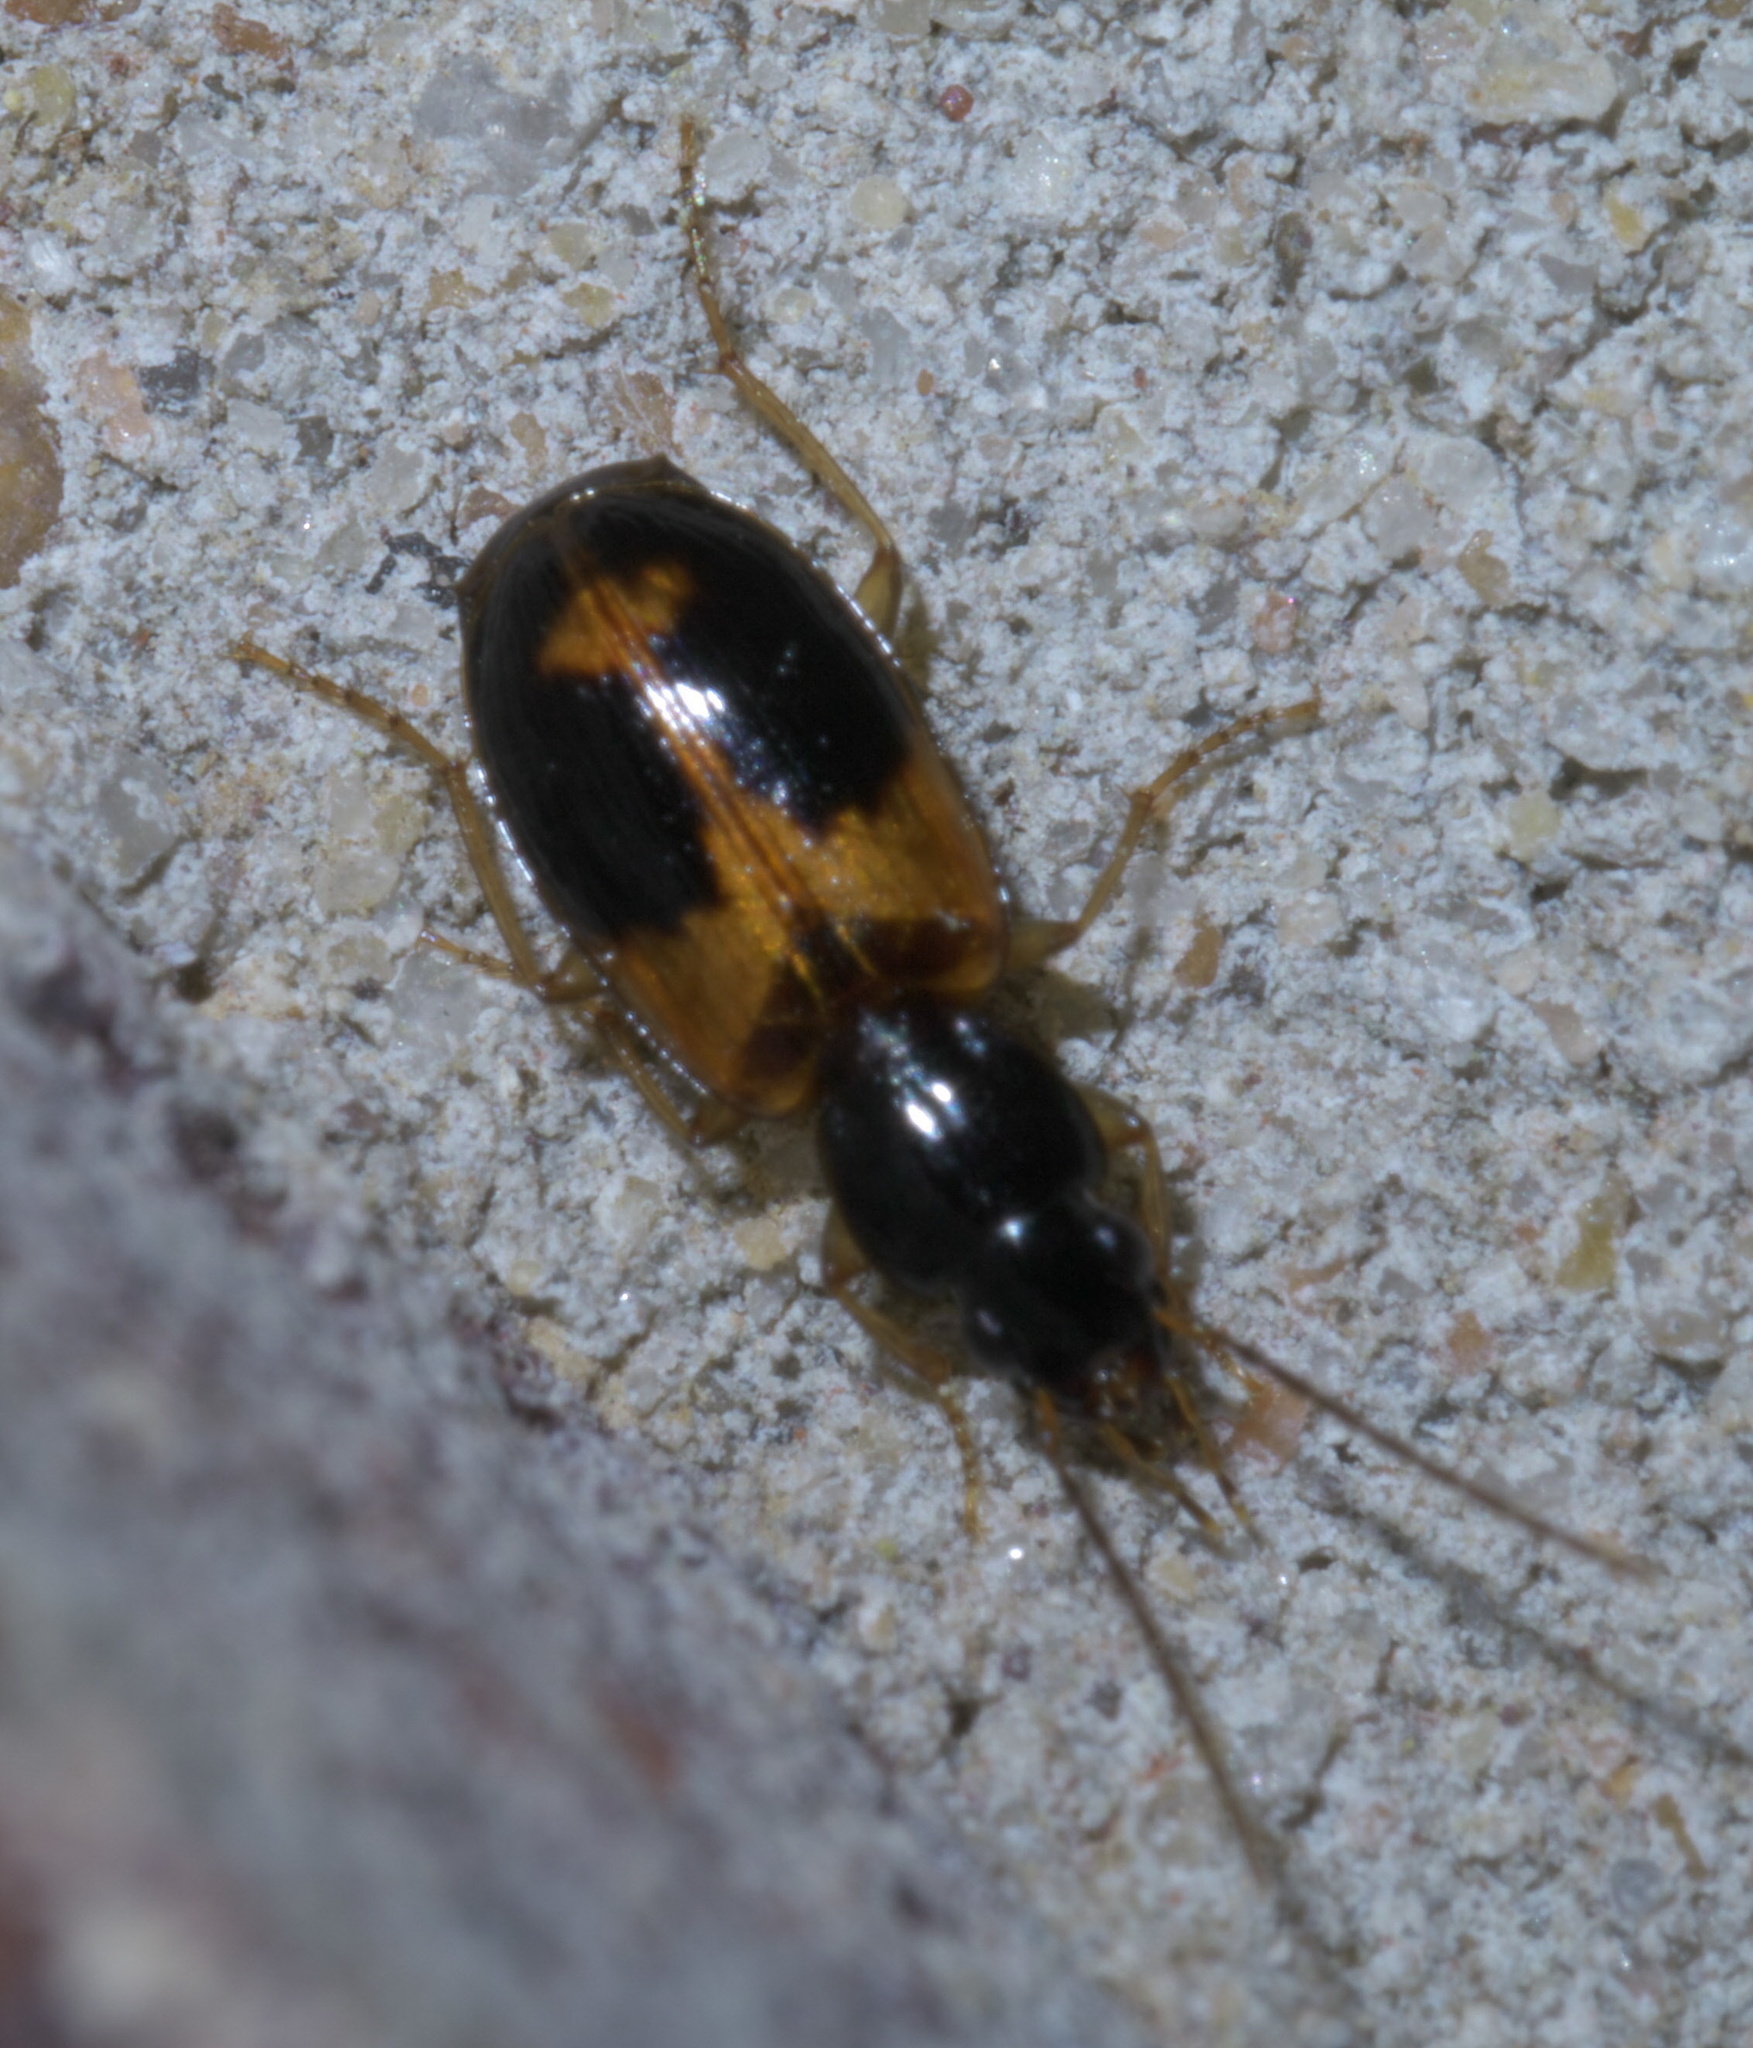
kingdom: Animalia
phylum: Arthropoda
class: Insecta
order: Coleoptera
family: Carabidae
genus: Badister
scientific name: Badister elegans
